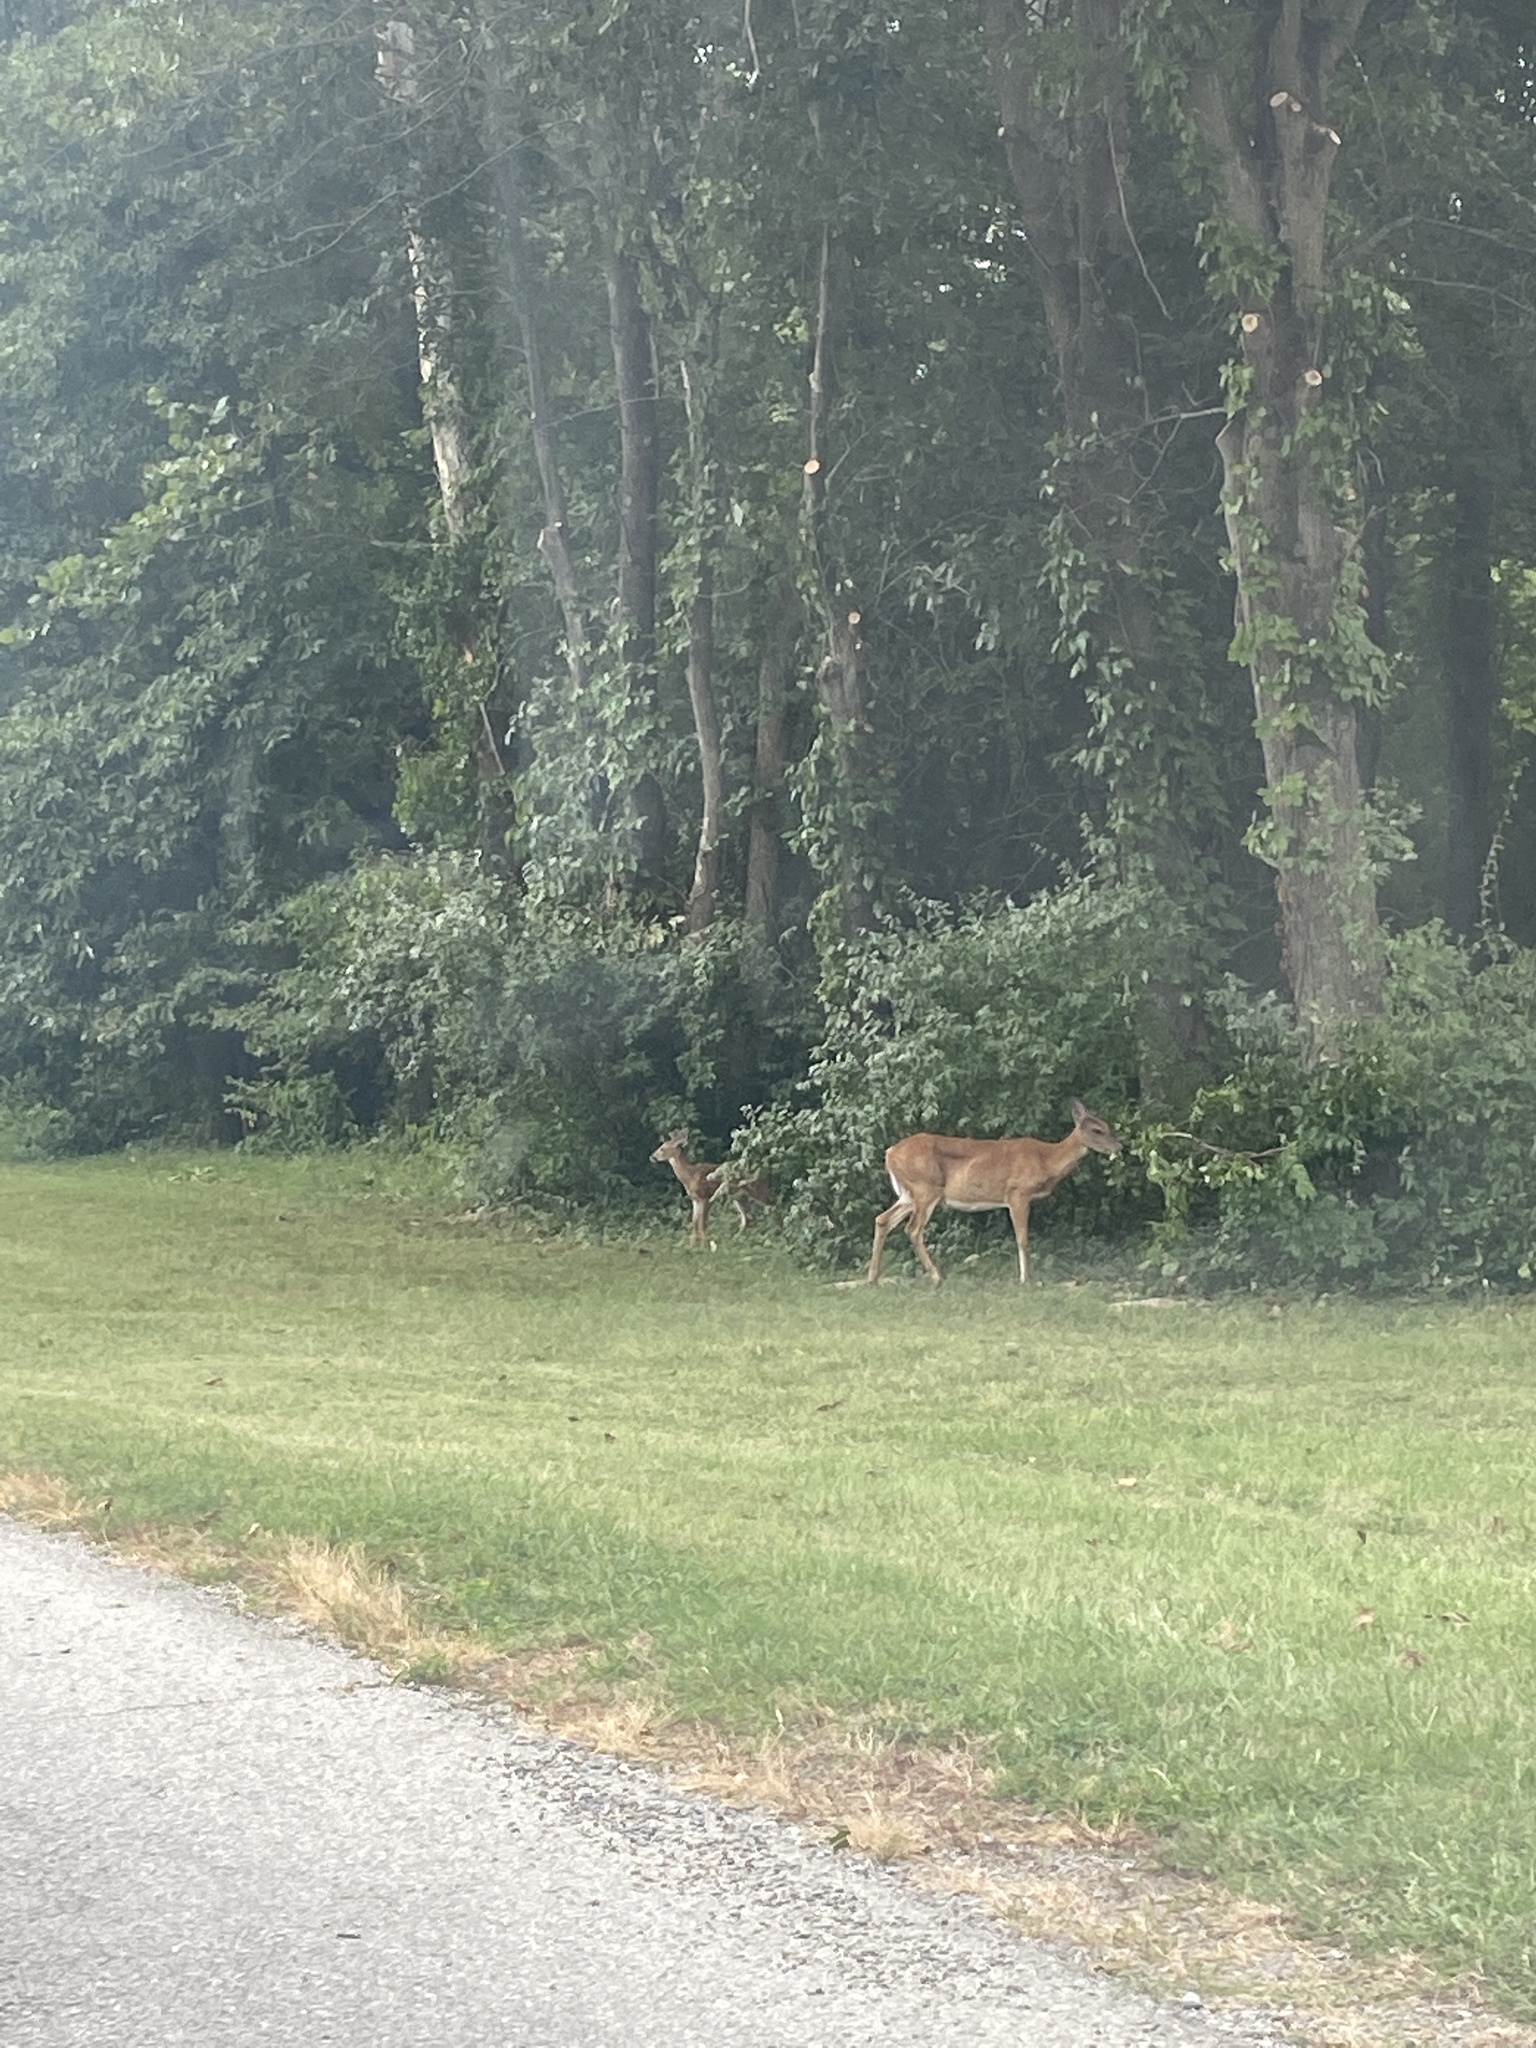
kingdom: Animalia
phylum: Chordata
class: Mammalia
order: Artiodactyla
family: Cervidae
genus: Odocoileus
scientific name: Odocoileus virginianus
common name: White-tailed deer
